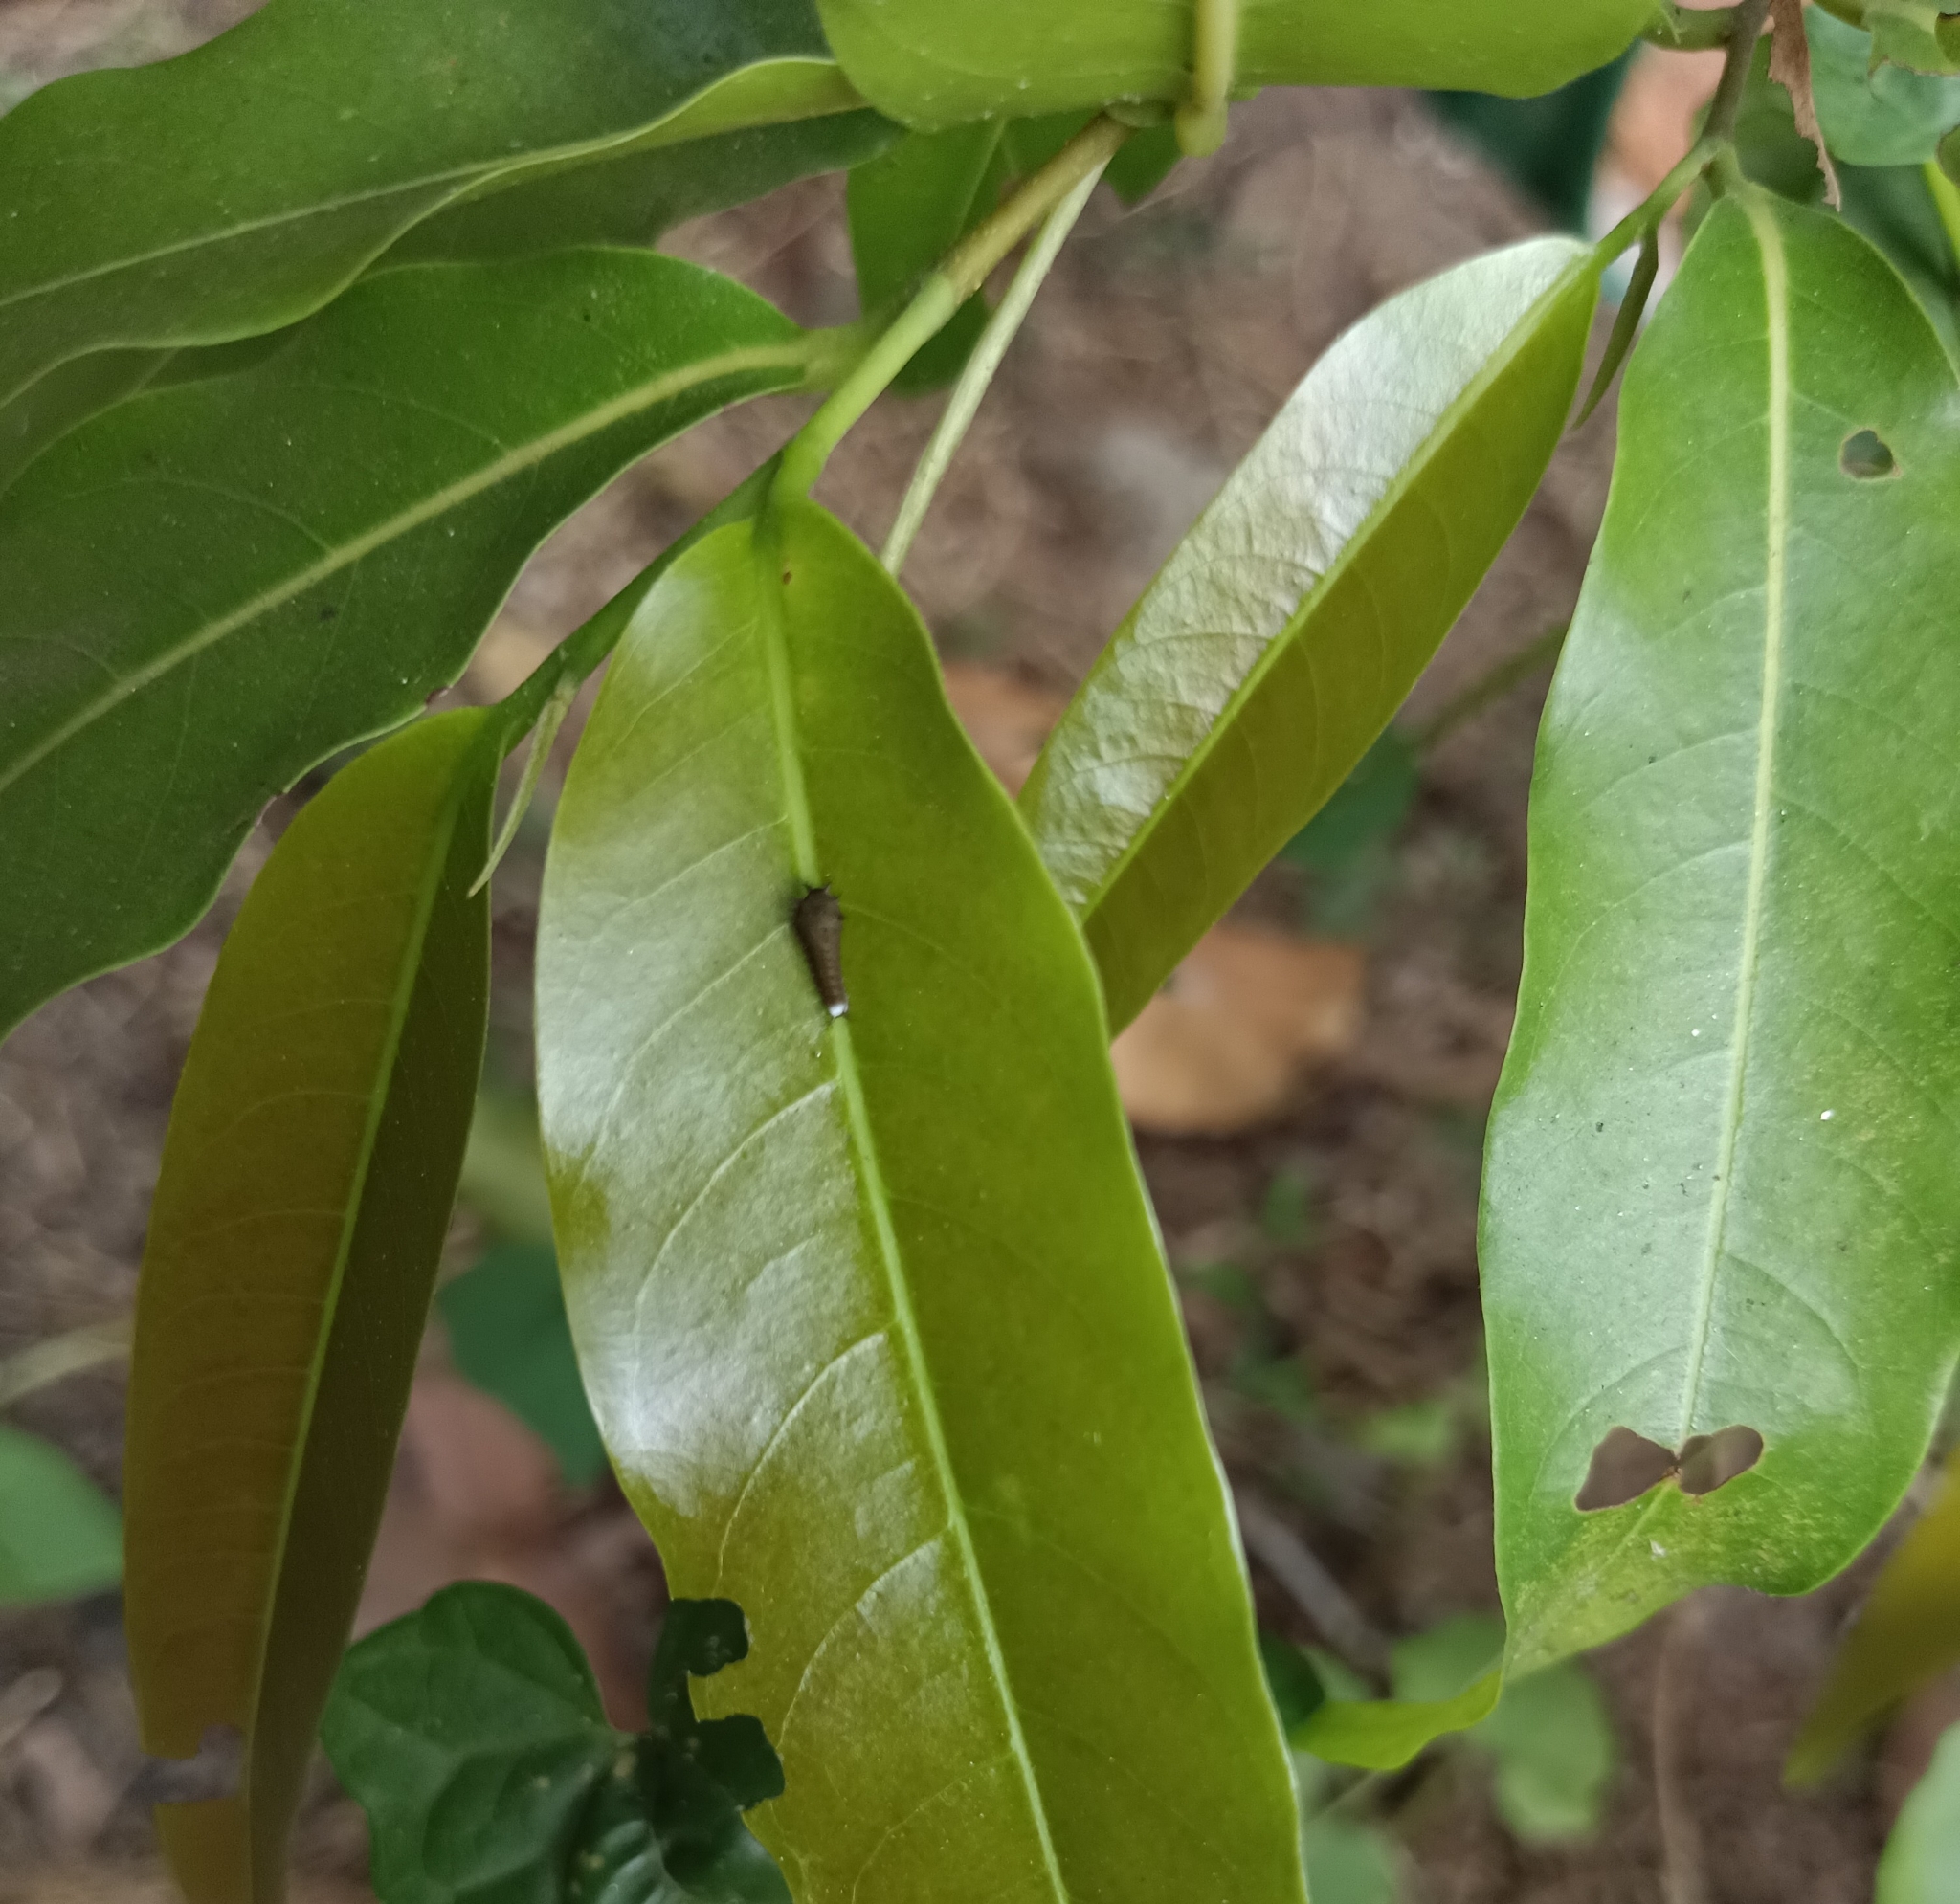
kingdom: Animalia
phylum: Arthropoda
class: Insecta
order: Lepidoptera
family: Papilionidae
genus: Graphium
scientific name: Graphium agamemnon
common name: Tailed jay
